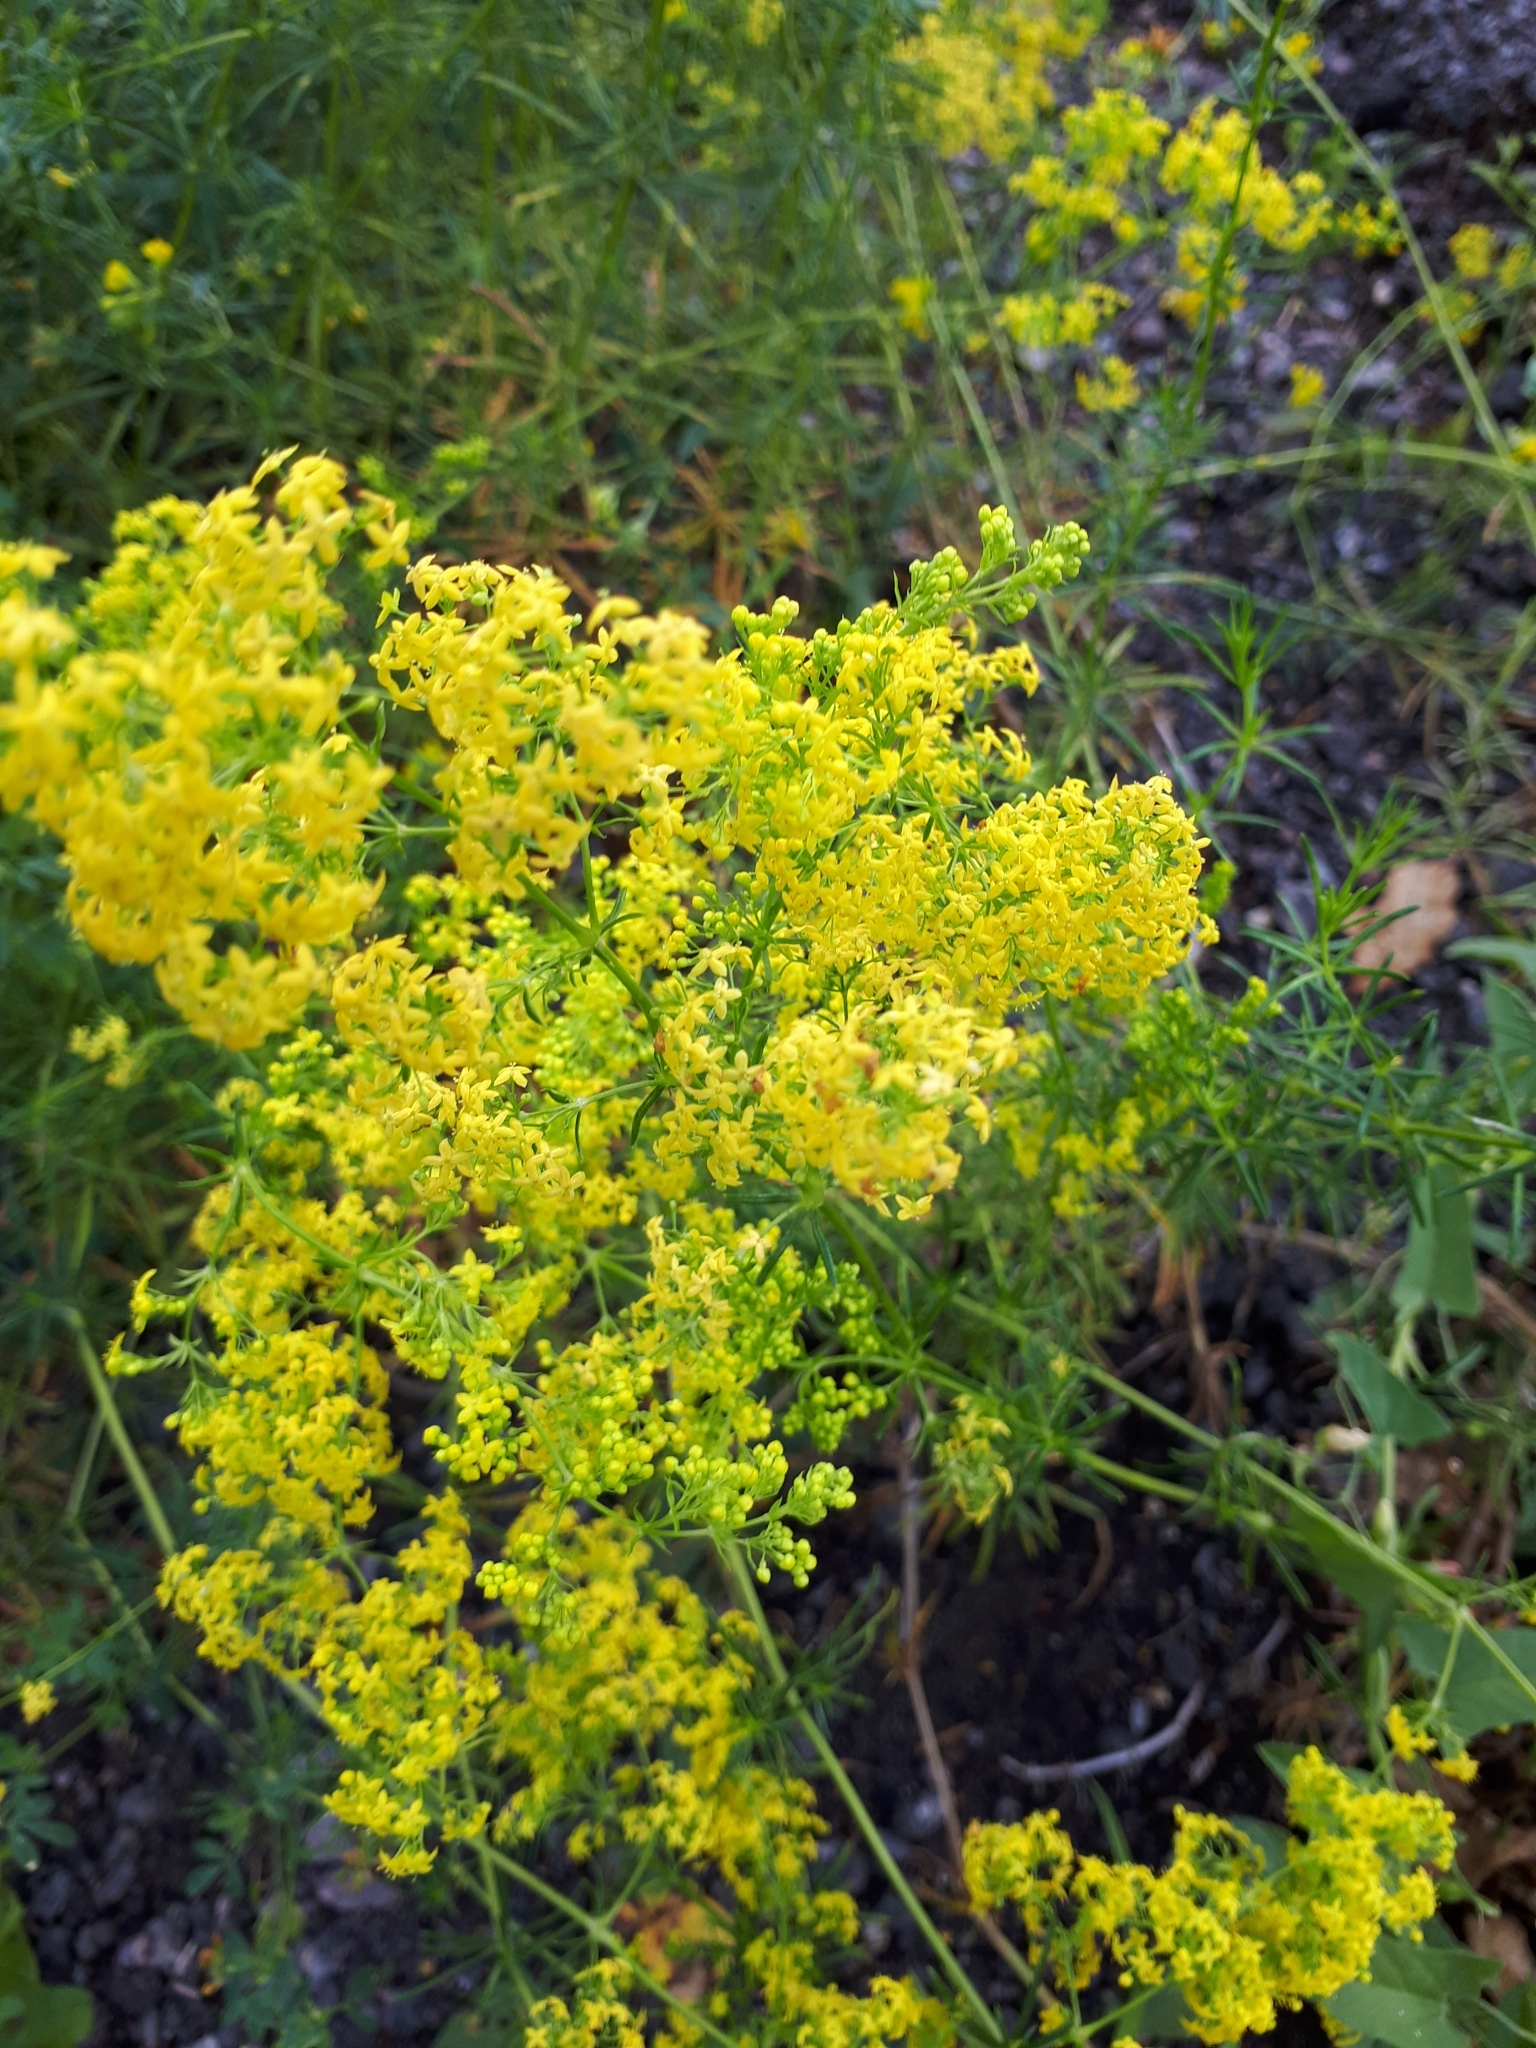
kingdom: Plantae
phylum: Tracheophyta
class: Magnoliopsida
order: Gentianales
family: Rubiaceae
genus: Galium
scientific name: Galium verum
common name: Lady's bedstraw
